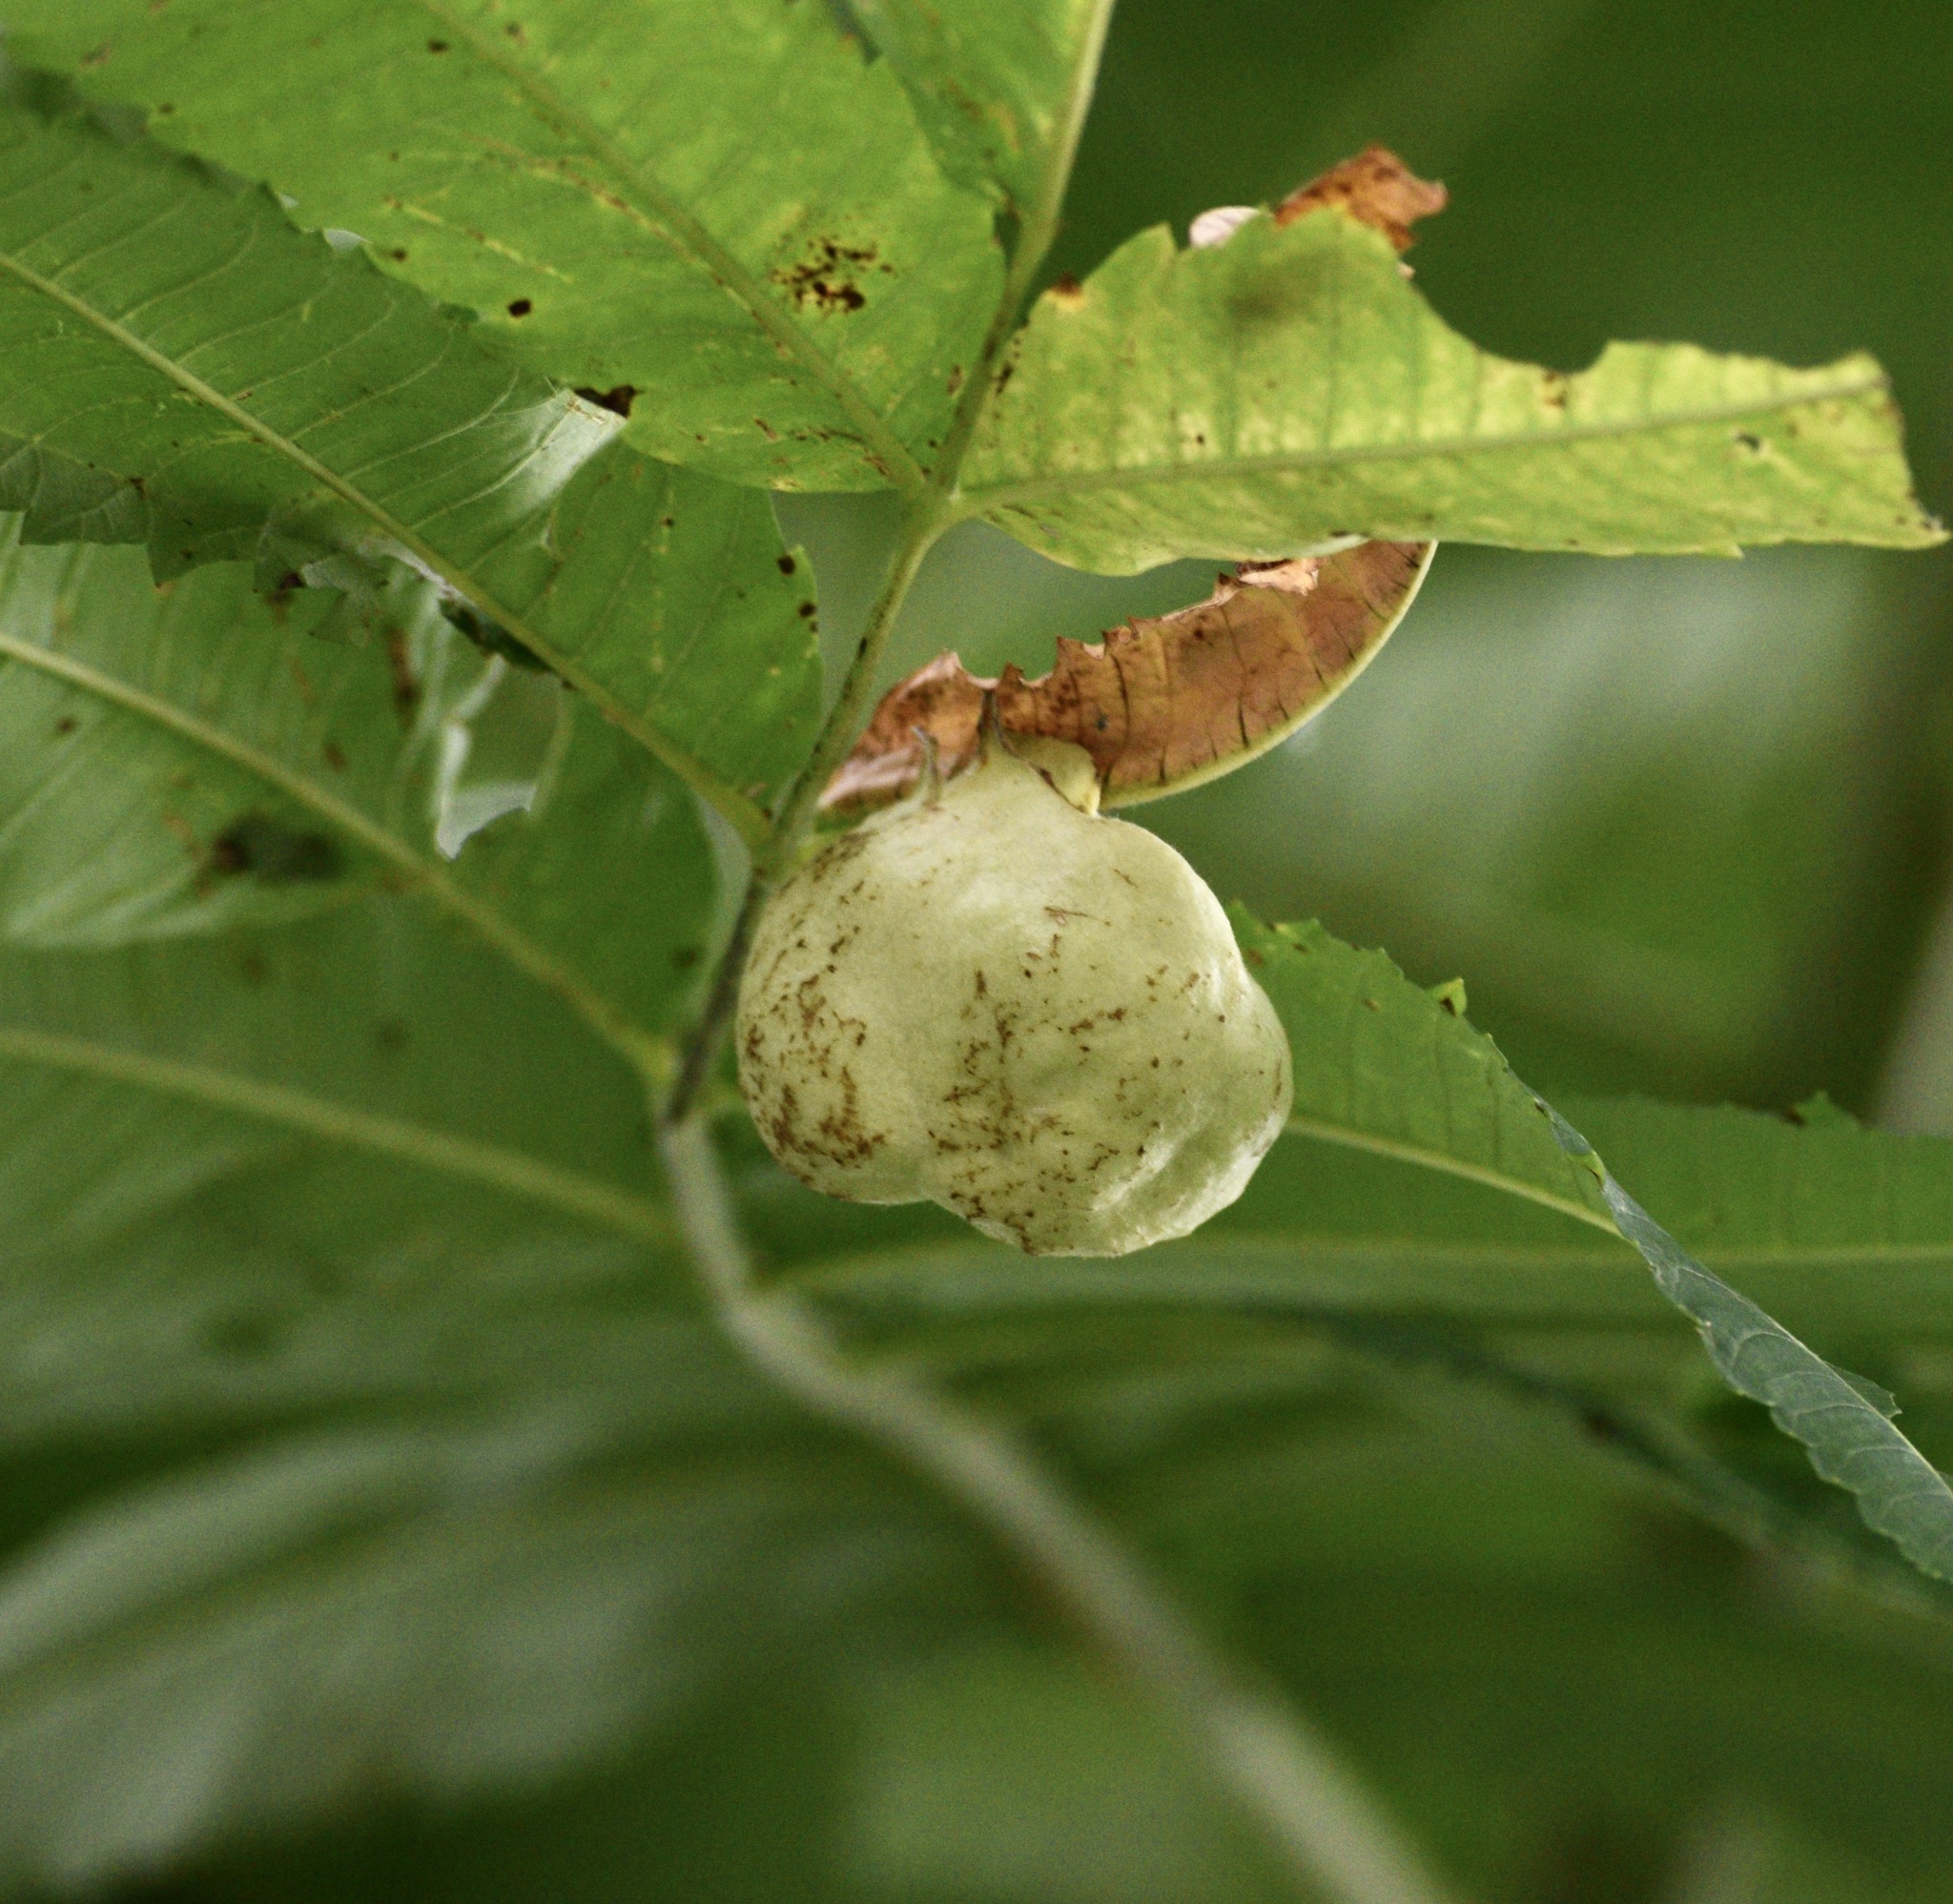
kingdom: Animalia
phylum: Arthropoda
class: Insecta
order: Hemiptera
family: Aphididae
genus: Melaphis
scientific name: Melaphis rhois
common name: Sumac gall aphid
